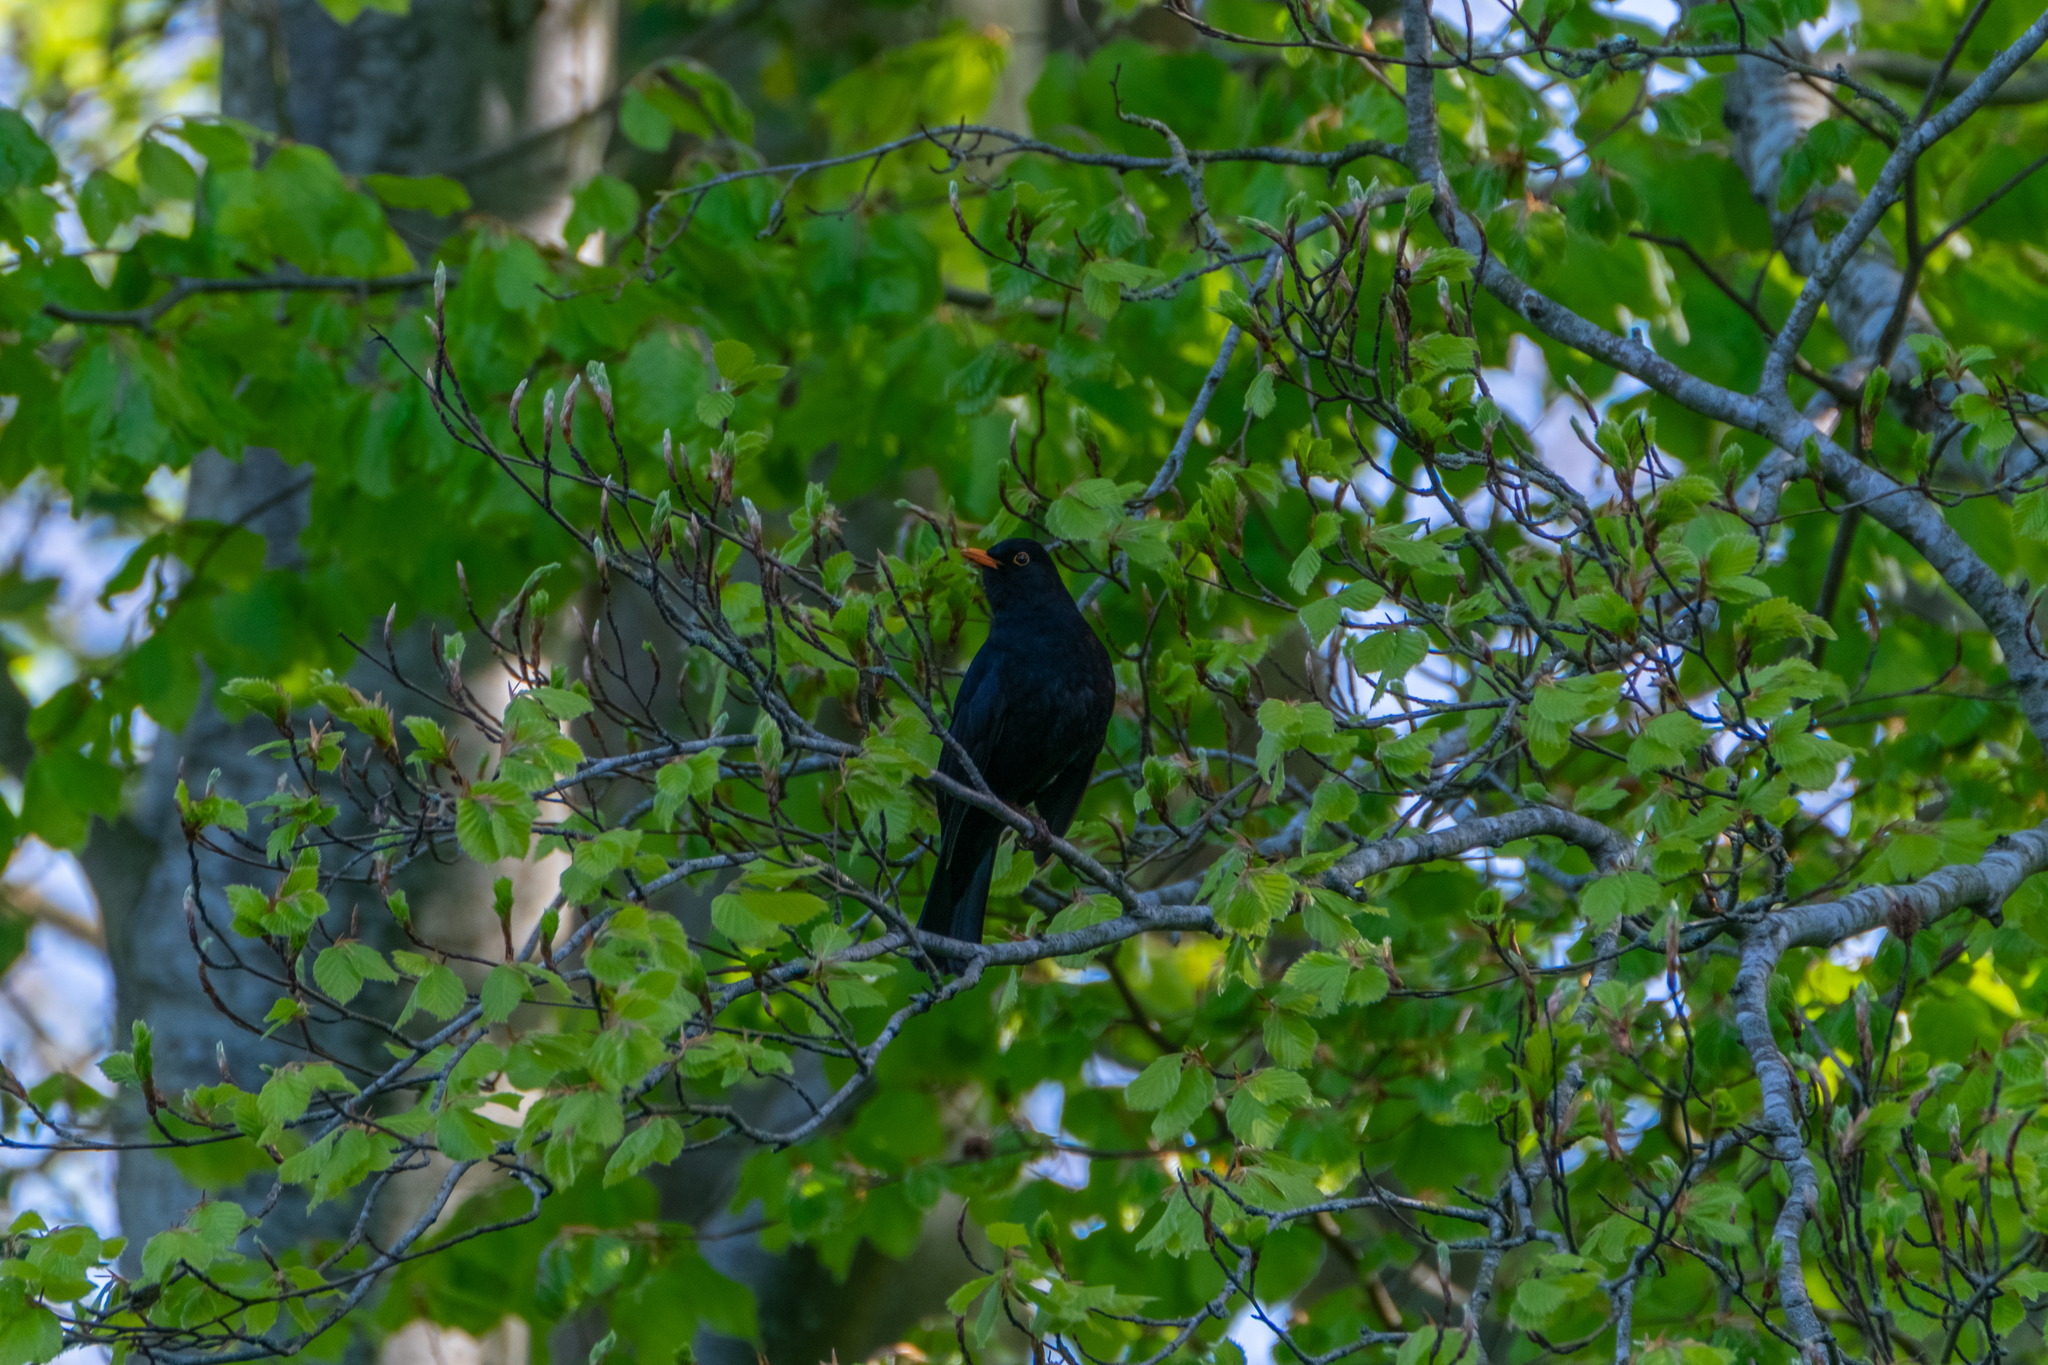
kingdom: Animalia
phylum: Chordata
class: Aves
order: Passeriformes
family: Turdidae
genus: Turdus
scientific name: Turdus merula
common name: Common blackbird
